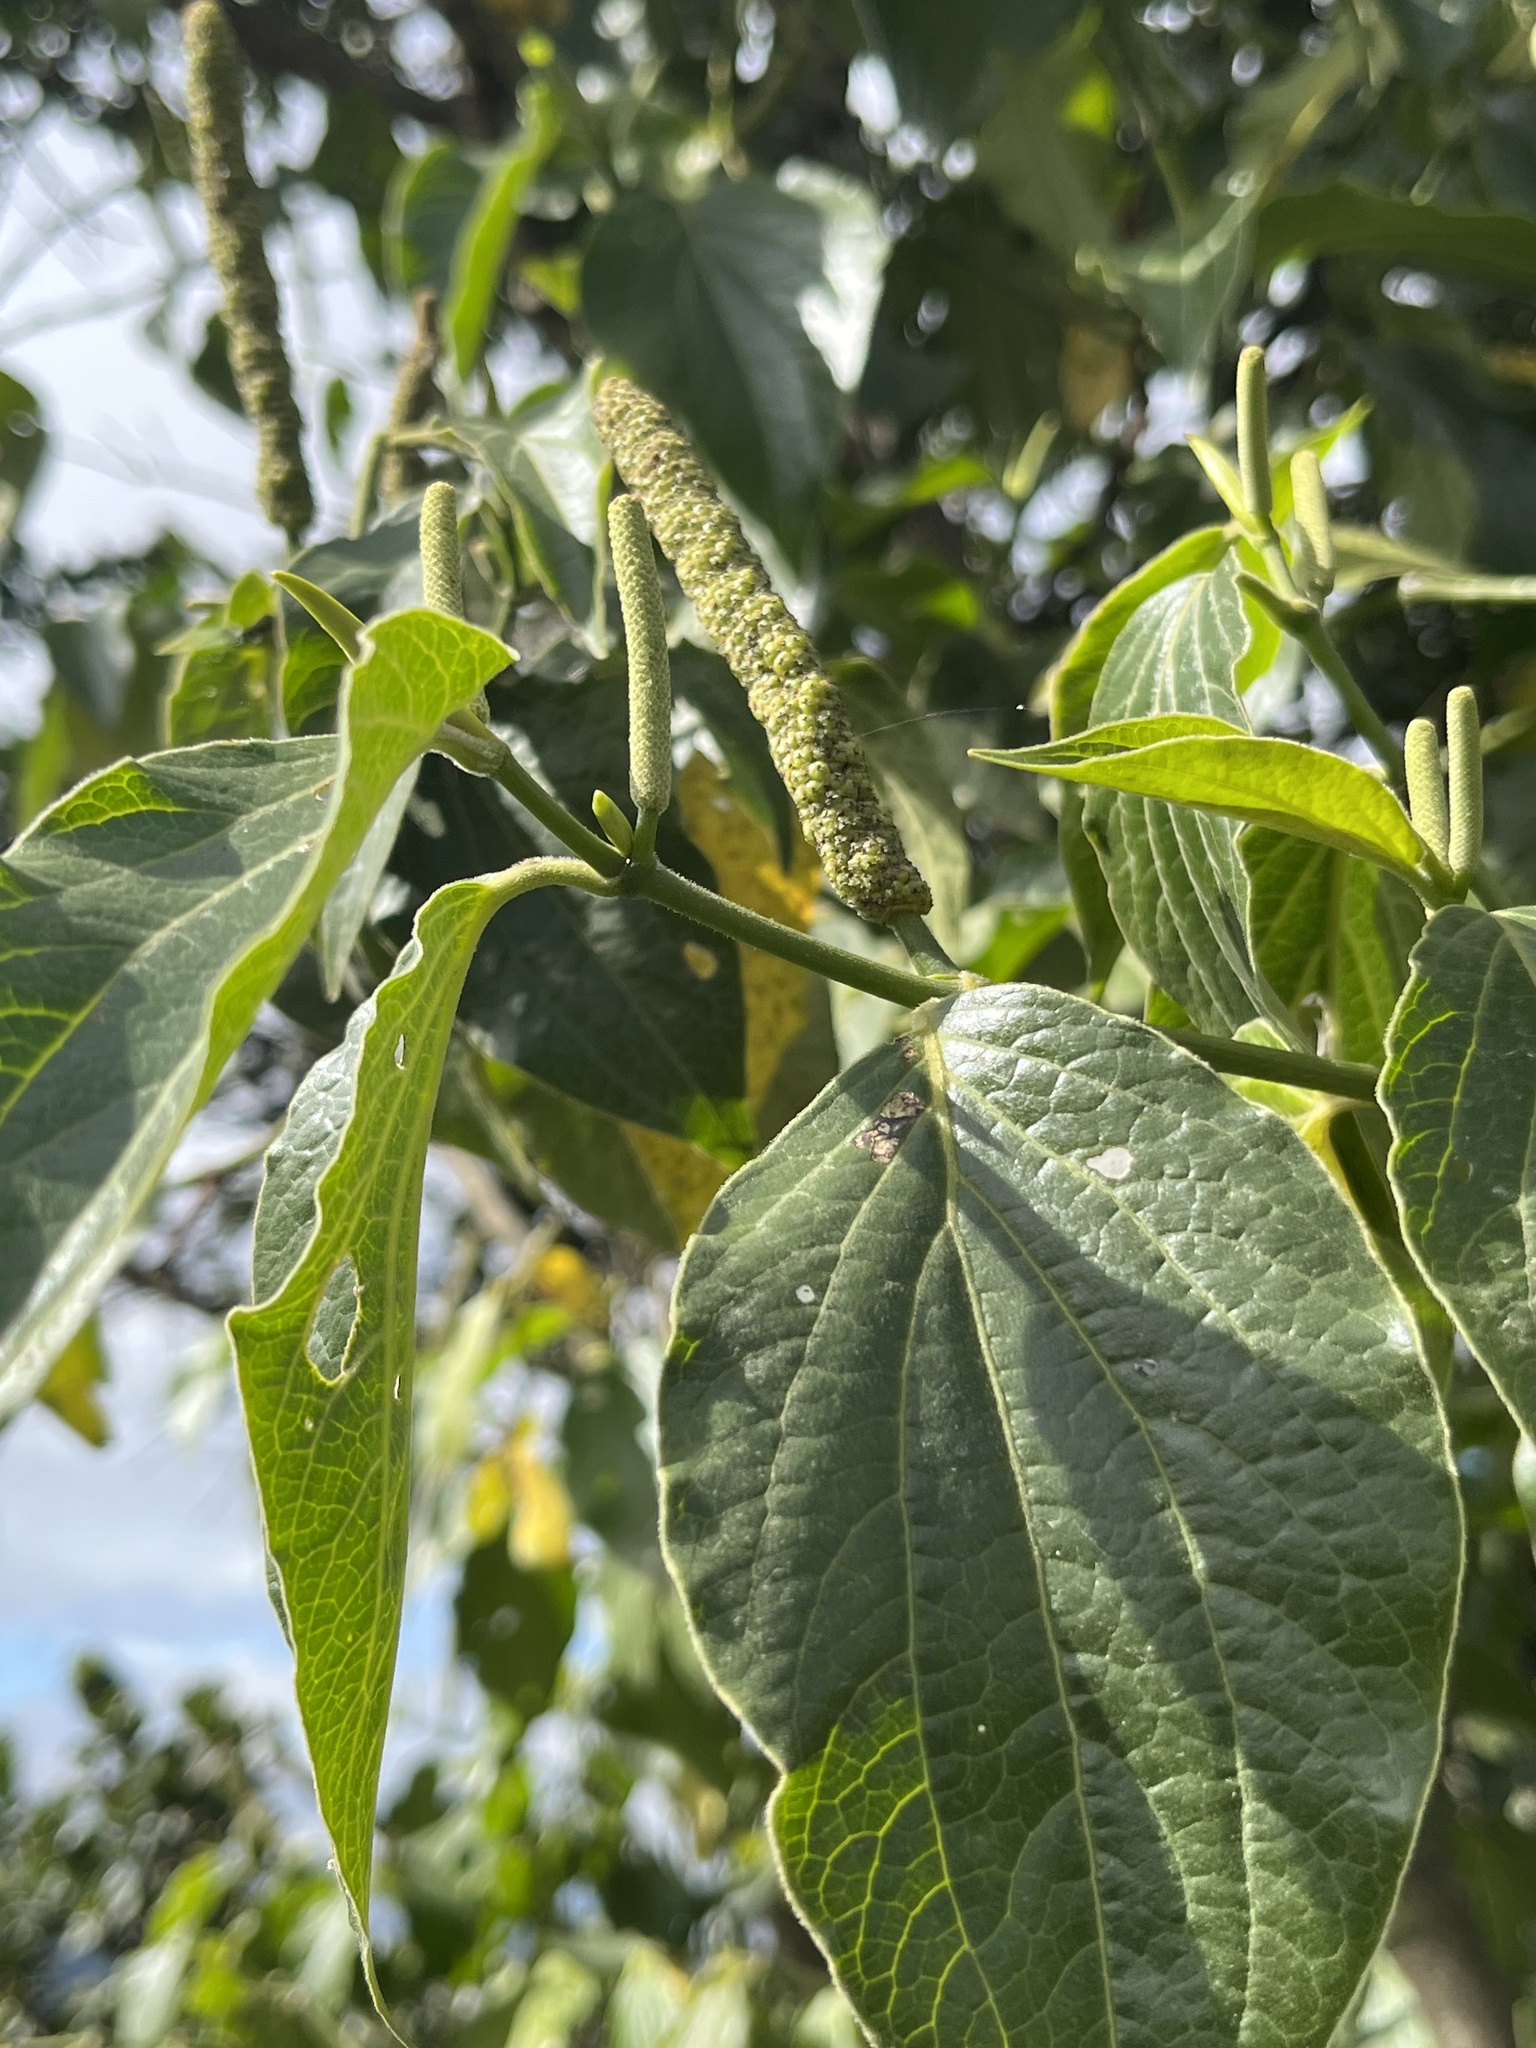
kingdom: Plantae
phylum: Tracheophyta
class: Magnoliopsida
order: Piperales
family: Piperaceae
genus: Piper
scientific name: Piper barbatum
